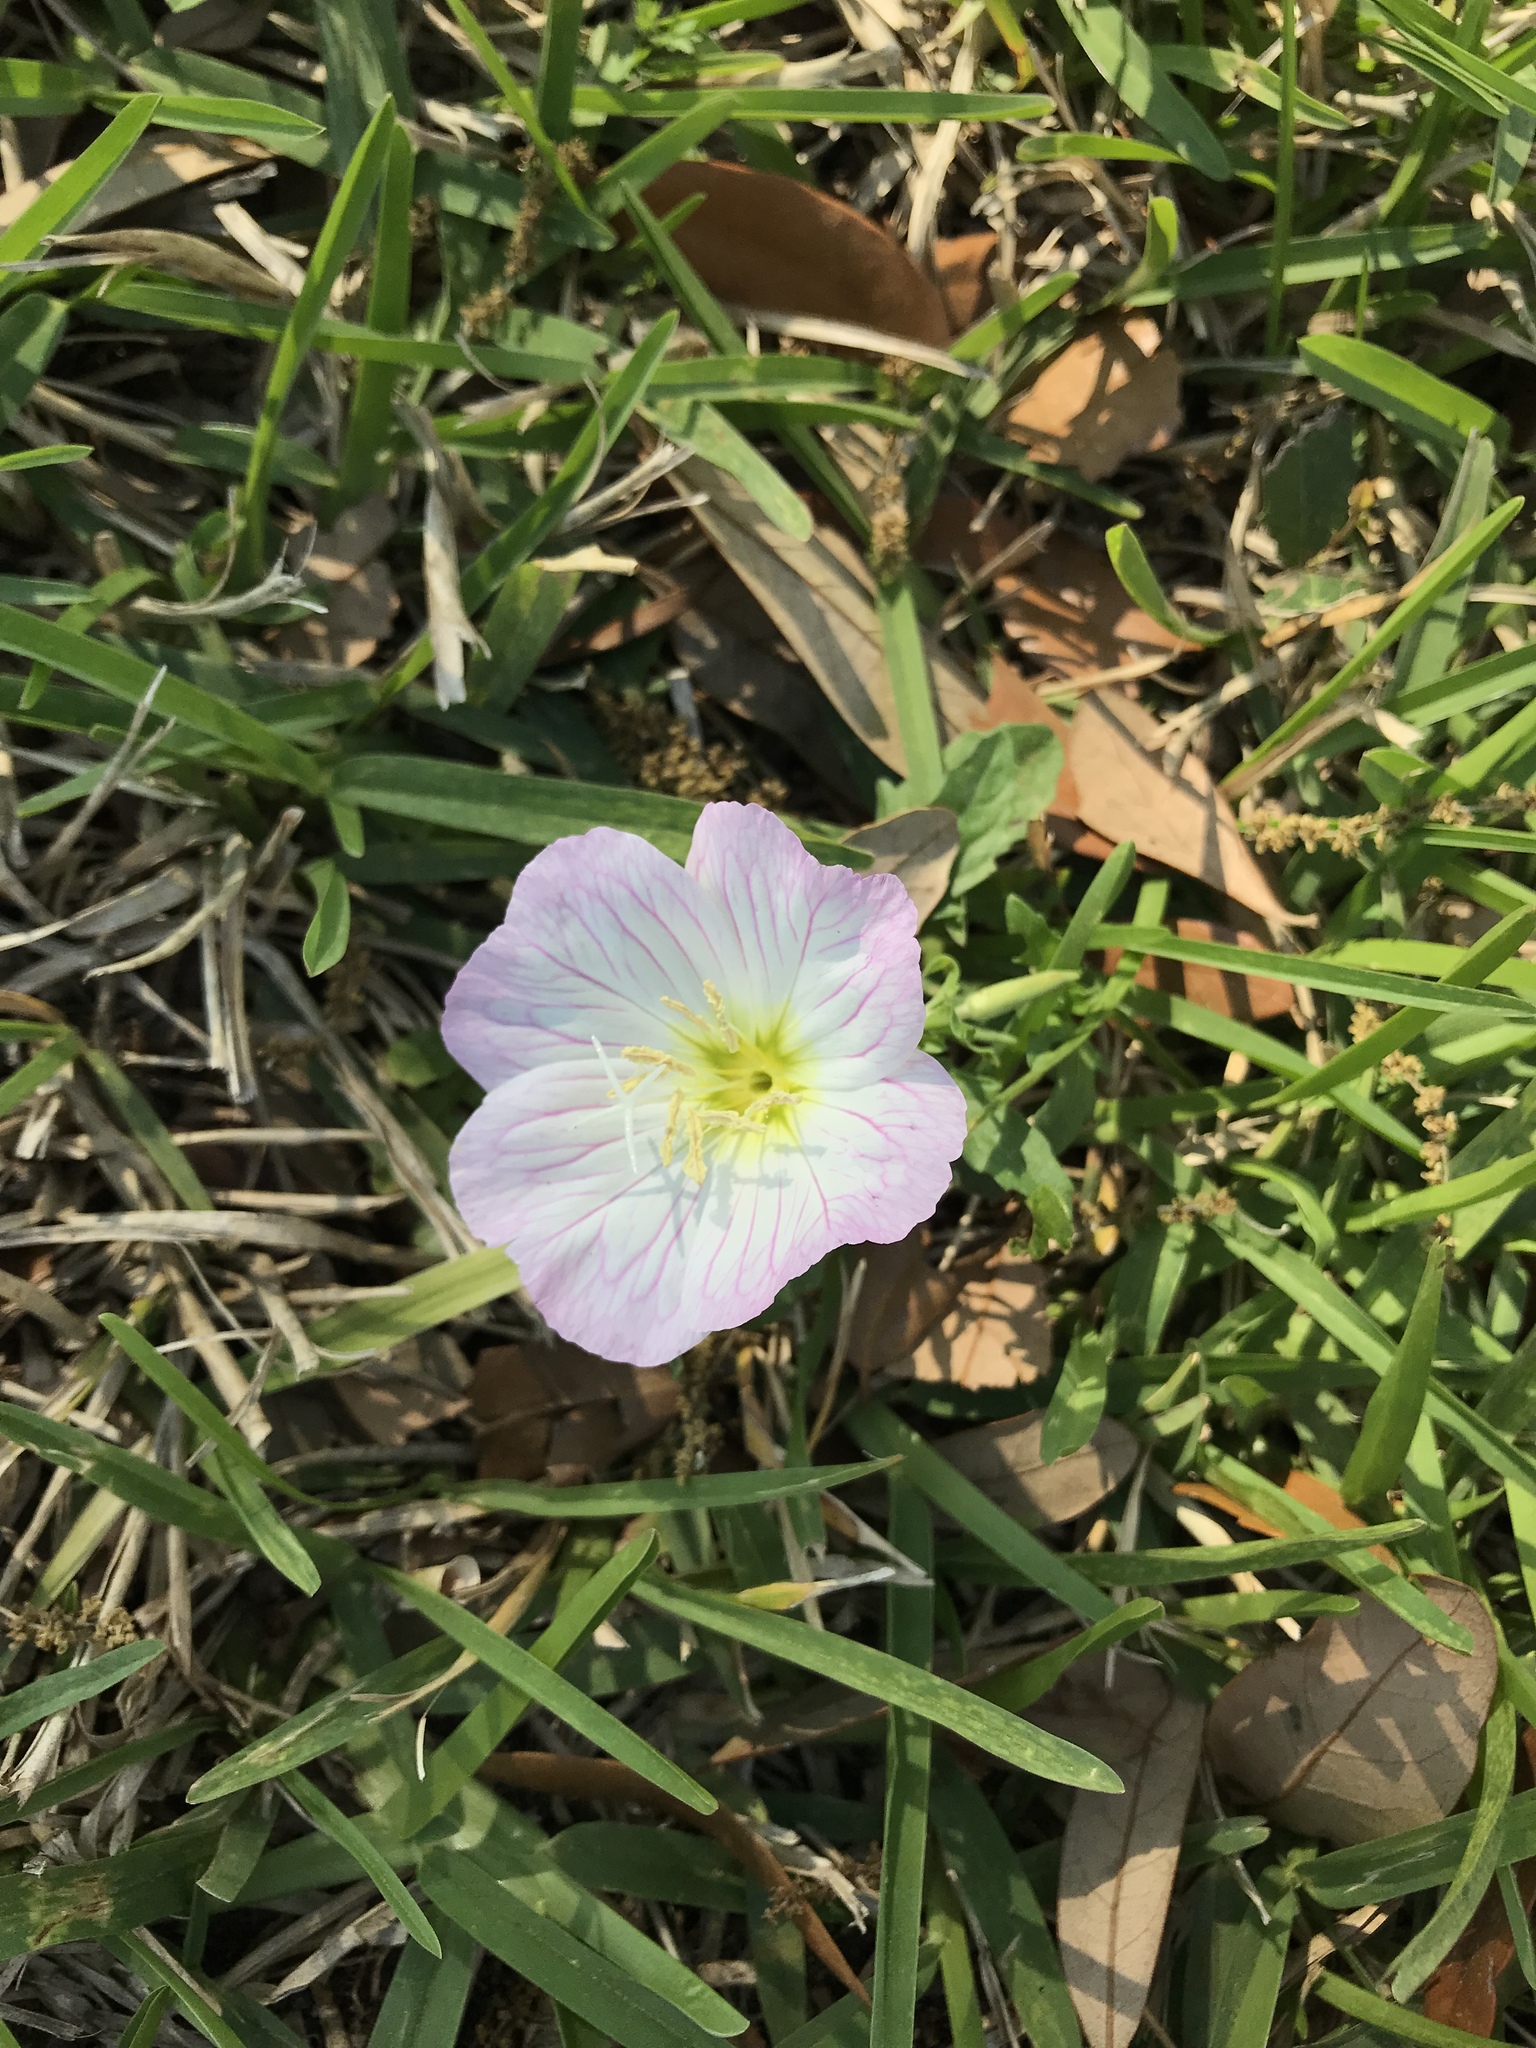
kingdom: Plantae
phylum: Tracheophyta
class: Magnoliopsida
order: Myrtales
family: Onagraceae
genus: Oenothera
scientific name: Oenothera speciosa
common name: White evening-primrose
